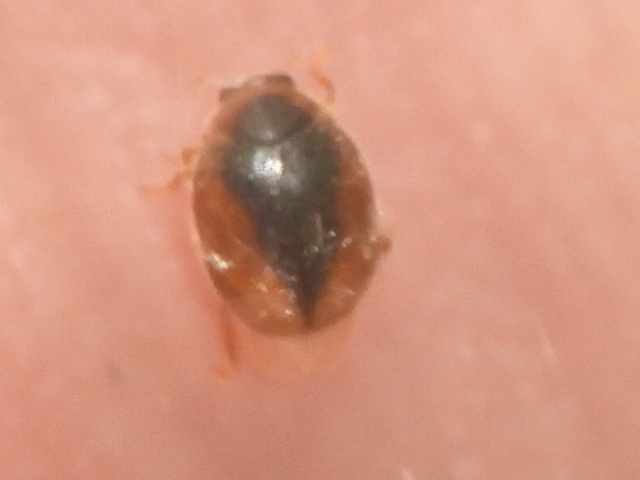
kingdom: Animalia
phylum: Arthropoda
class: Insecta
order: Coleoptera
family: Coccinellidae
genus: Scymnus
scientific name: Scymnus loewii
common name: Dusky lady beetle
